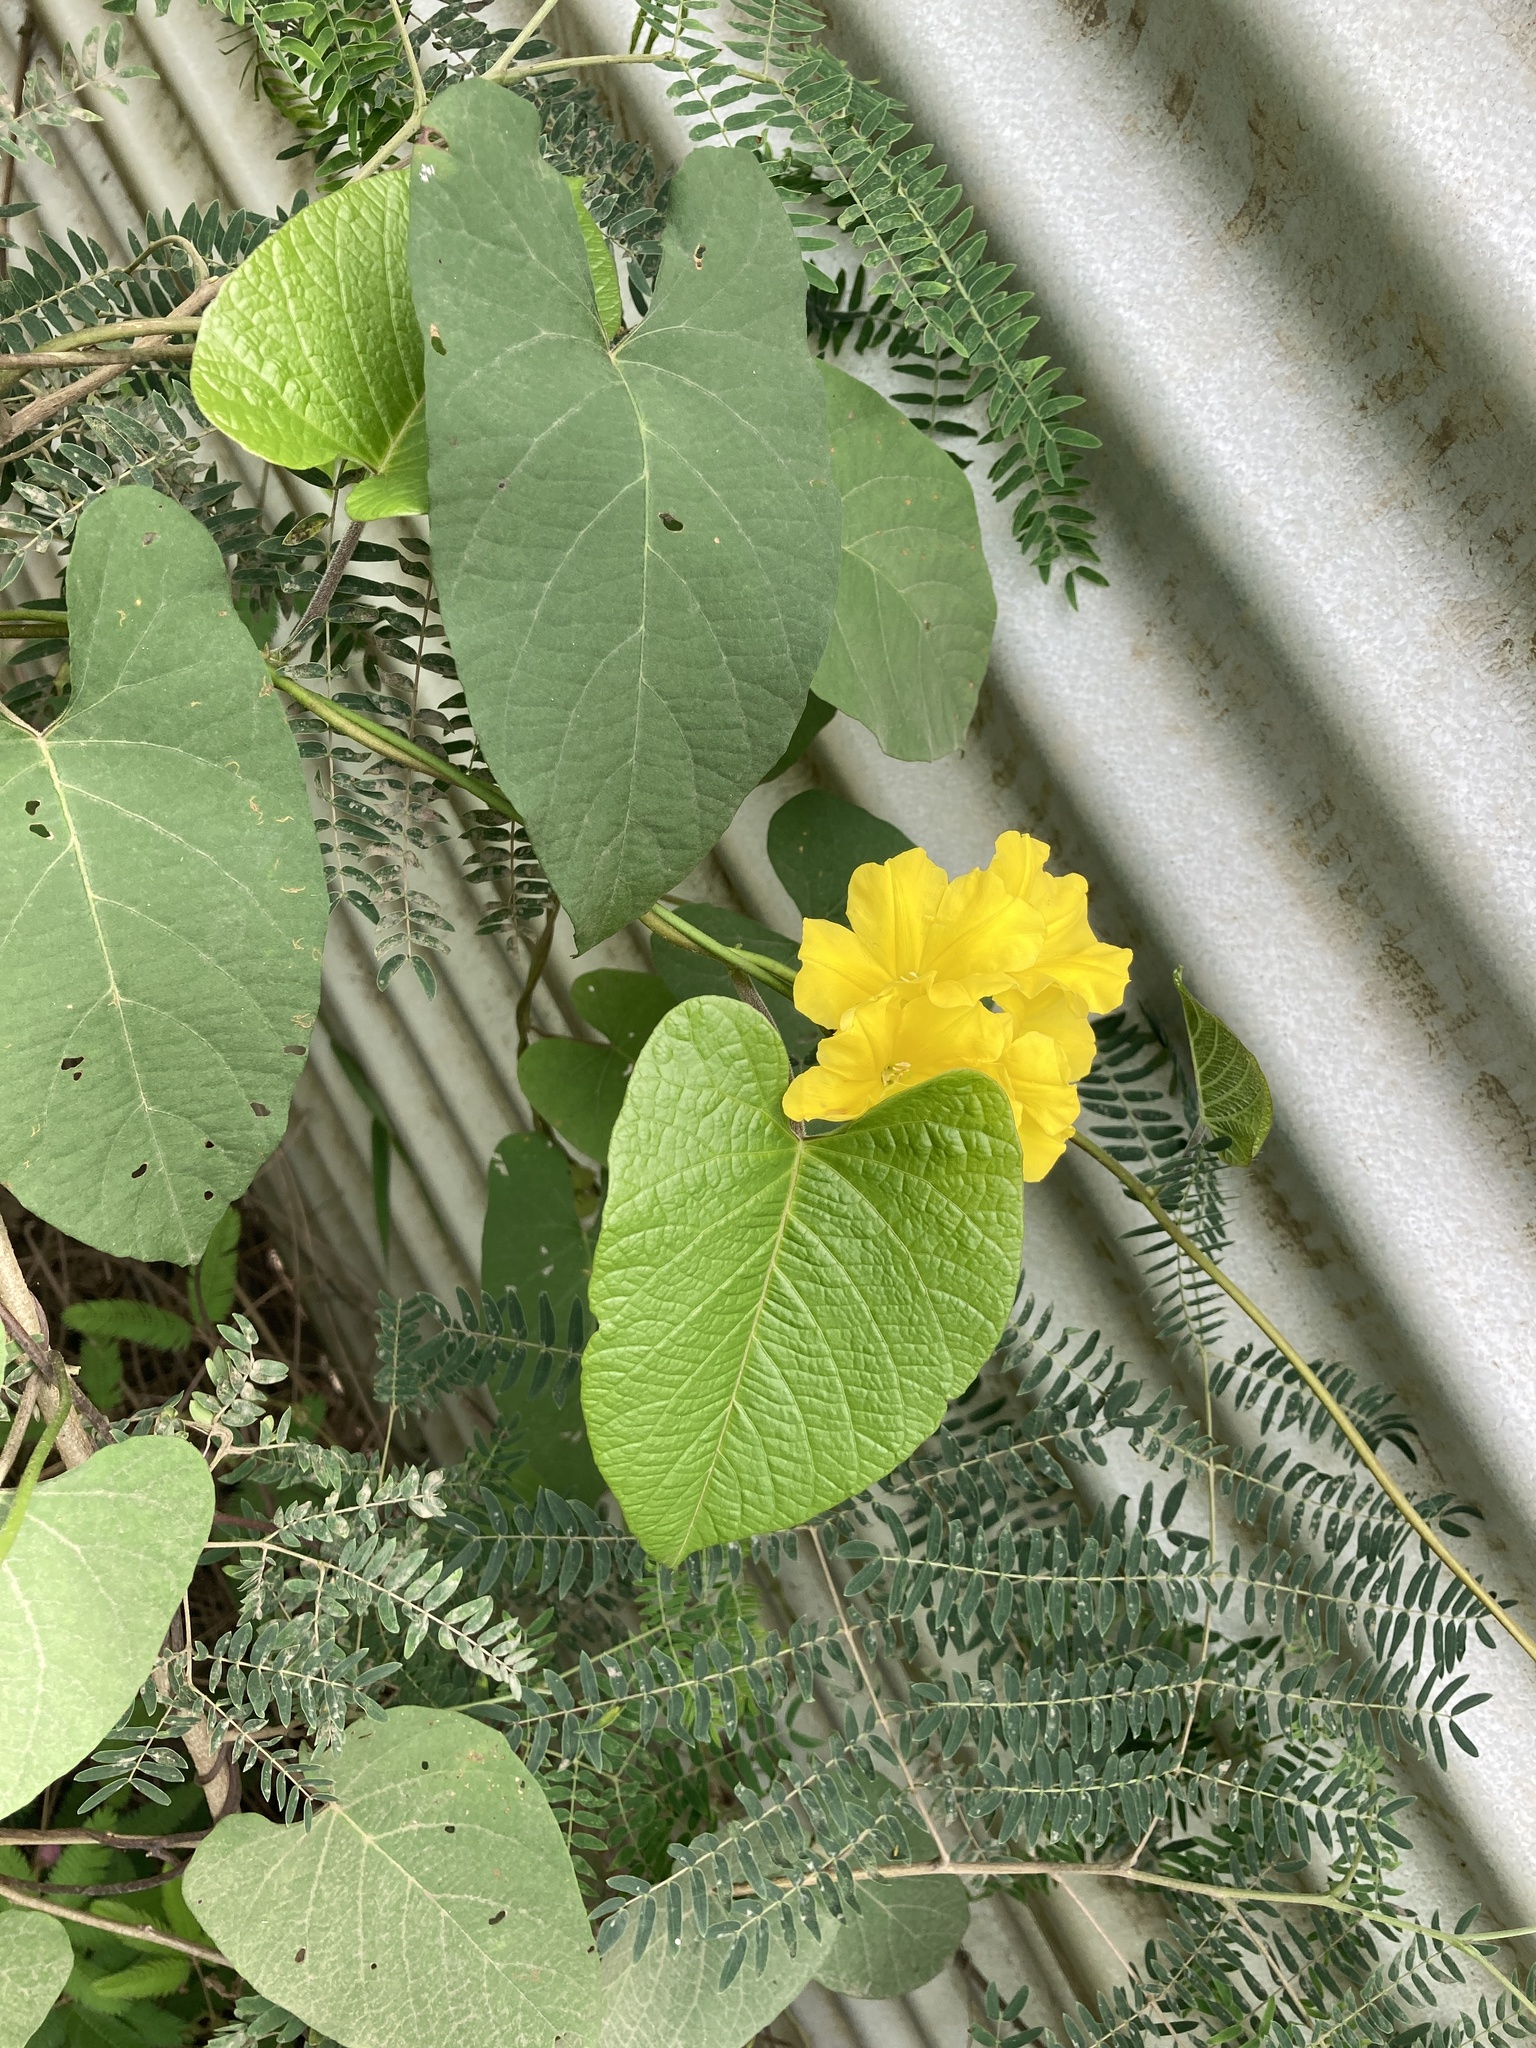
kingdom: Plantae
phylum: Tracheophyta
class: Magnoliopsida
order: Solanales
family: Convolvulaceae
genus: Camonea
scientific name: Camonea umbellata
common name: Hogvine
